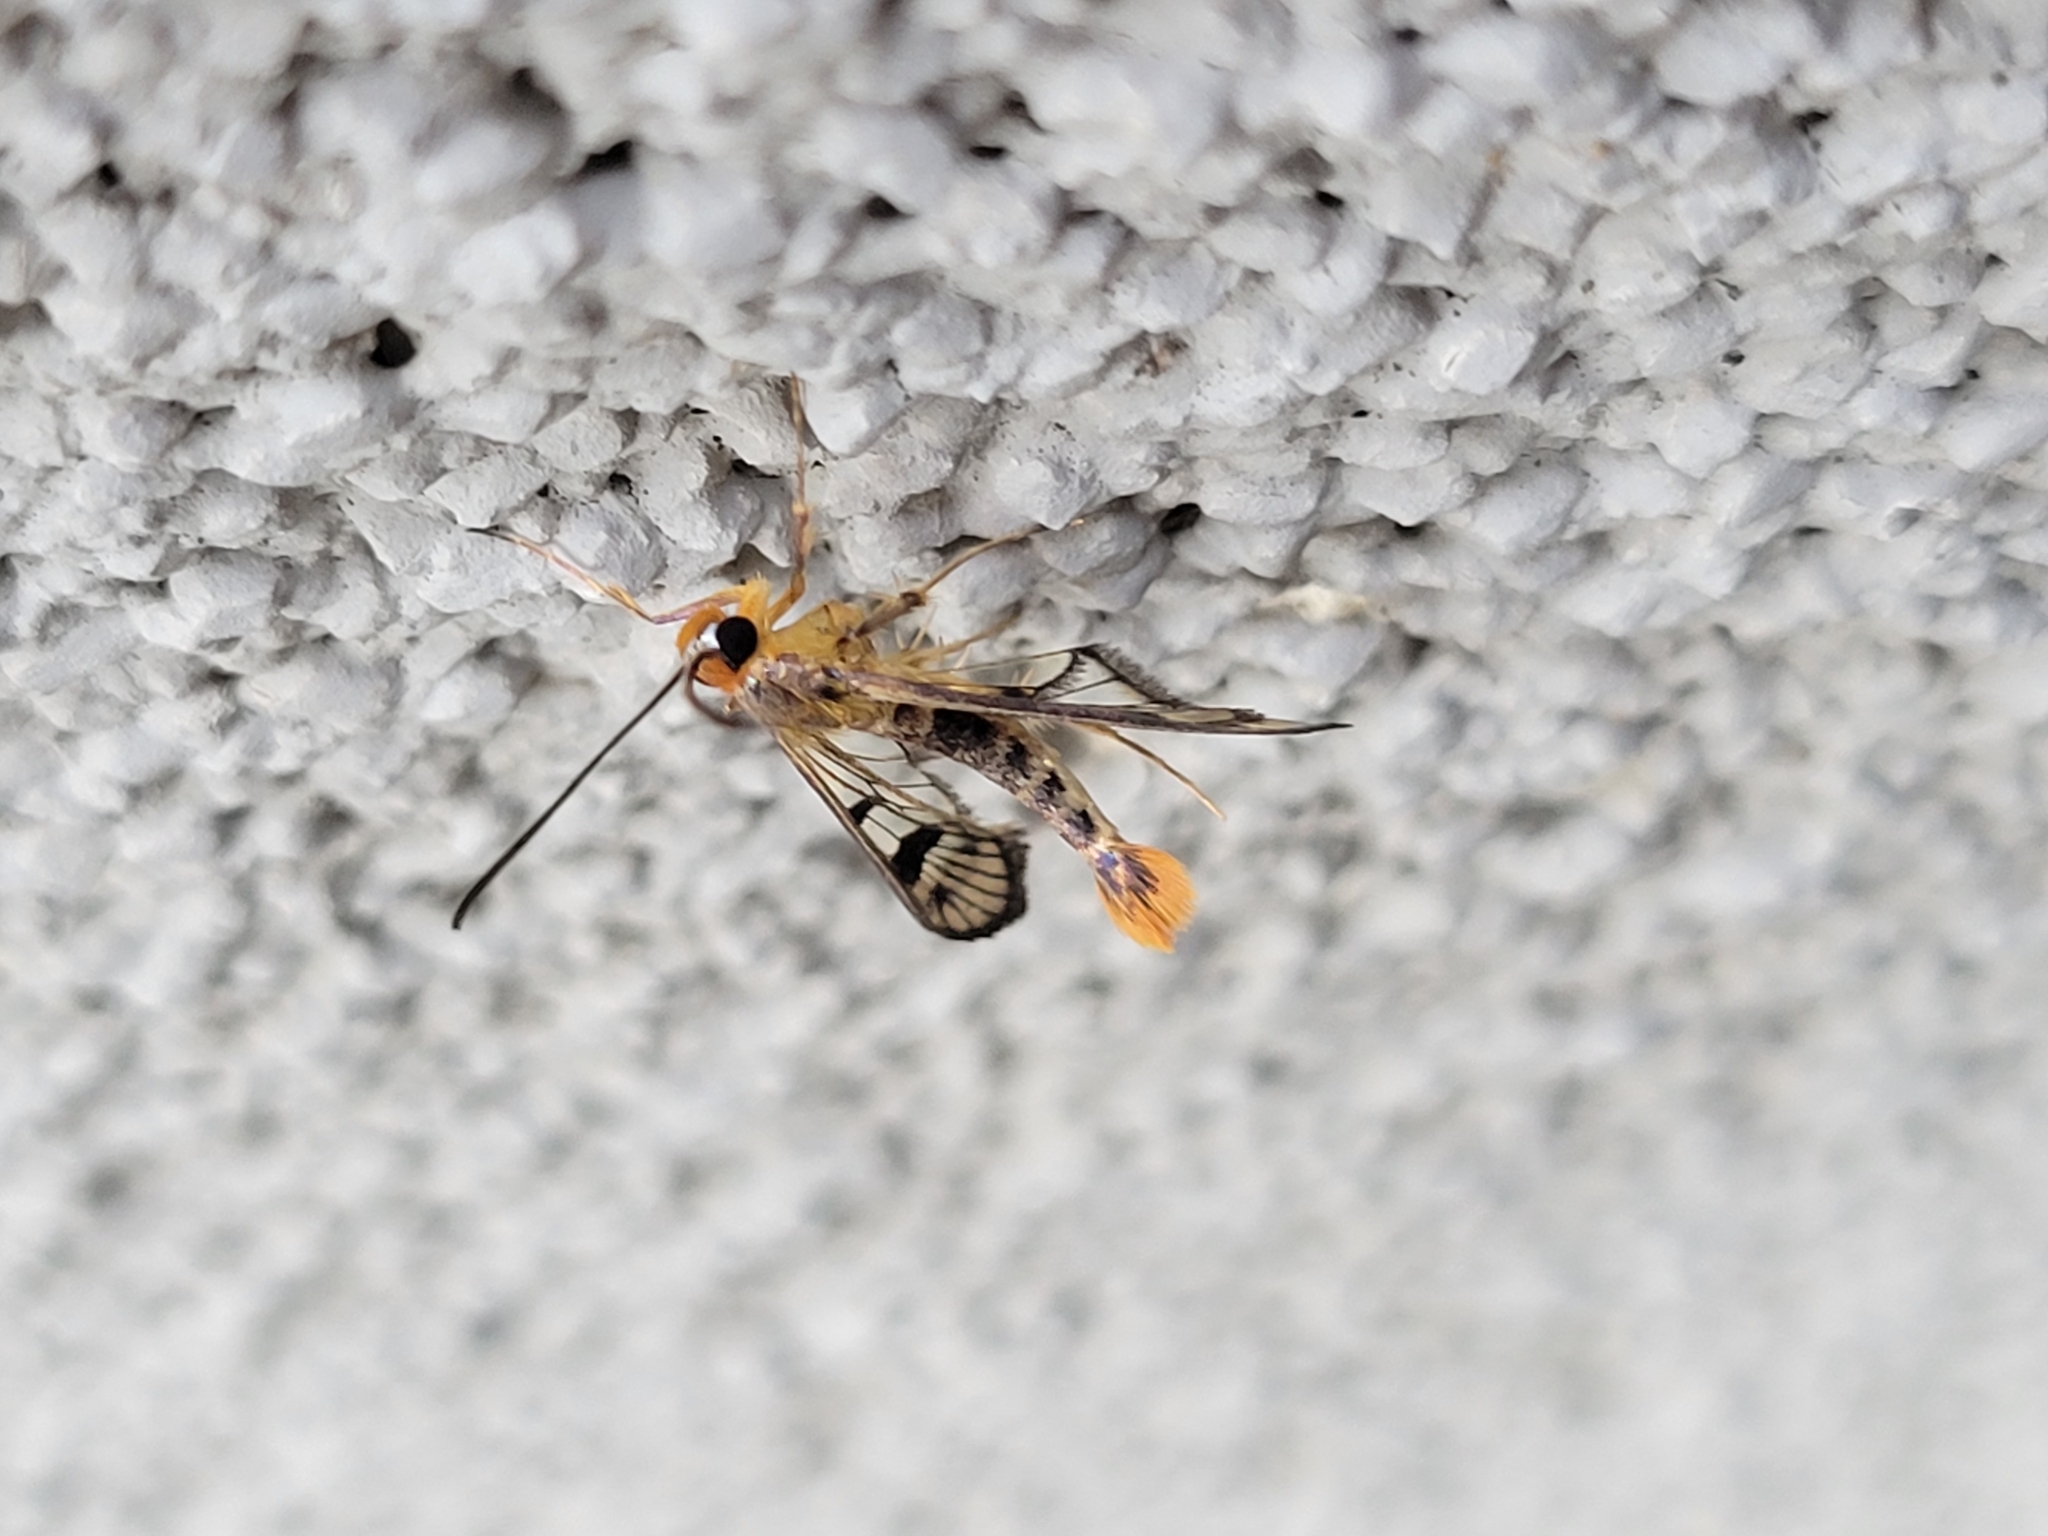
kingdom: Animalia
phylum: Arthropoda
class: Insecta
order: Lepidoptera
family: Sesiidae
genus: Synanthedon
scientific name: Synanthedon acerni
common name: Maple callus borer moth
